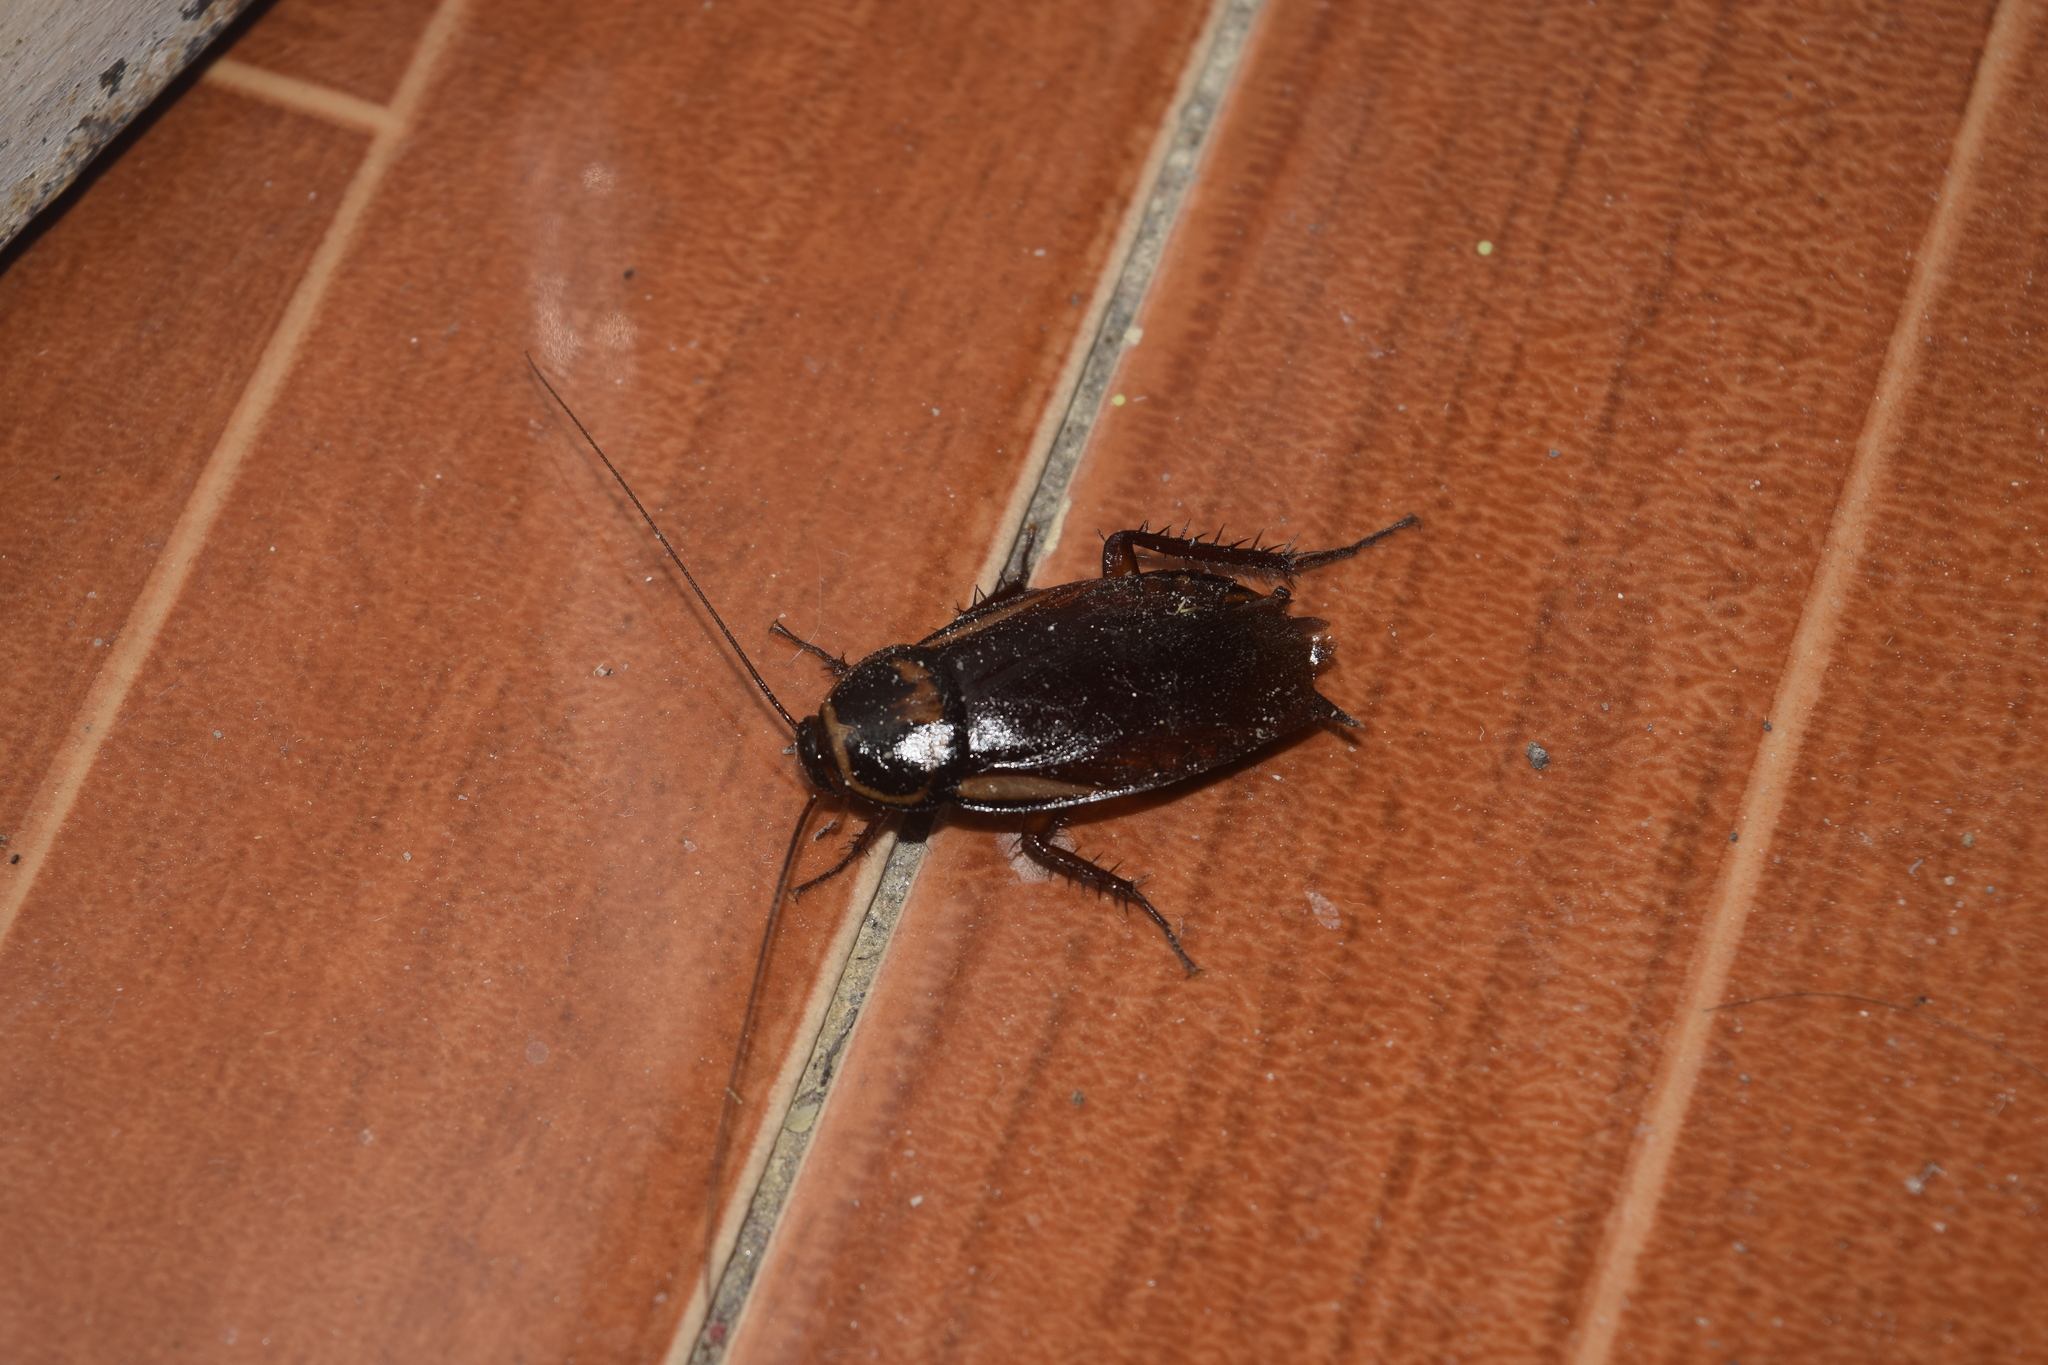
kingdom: Animalia
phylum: Arthropoda
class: Insecta
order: Blattodea
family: Blattidae
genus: Periplaneta
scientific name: Periplaneta australasiae
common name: Australian cockroach
